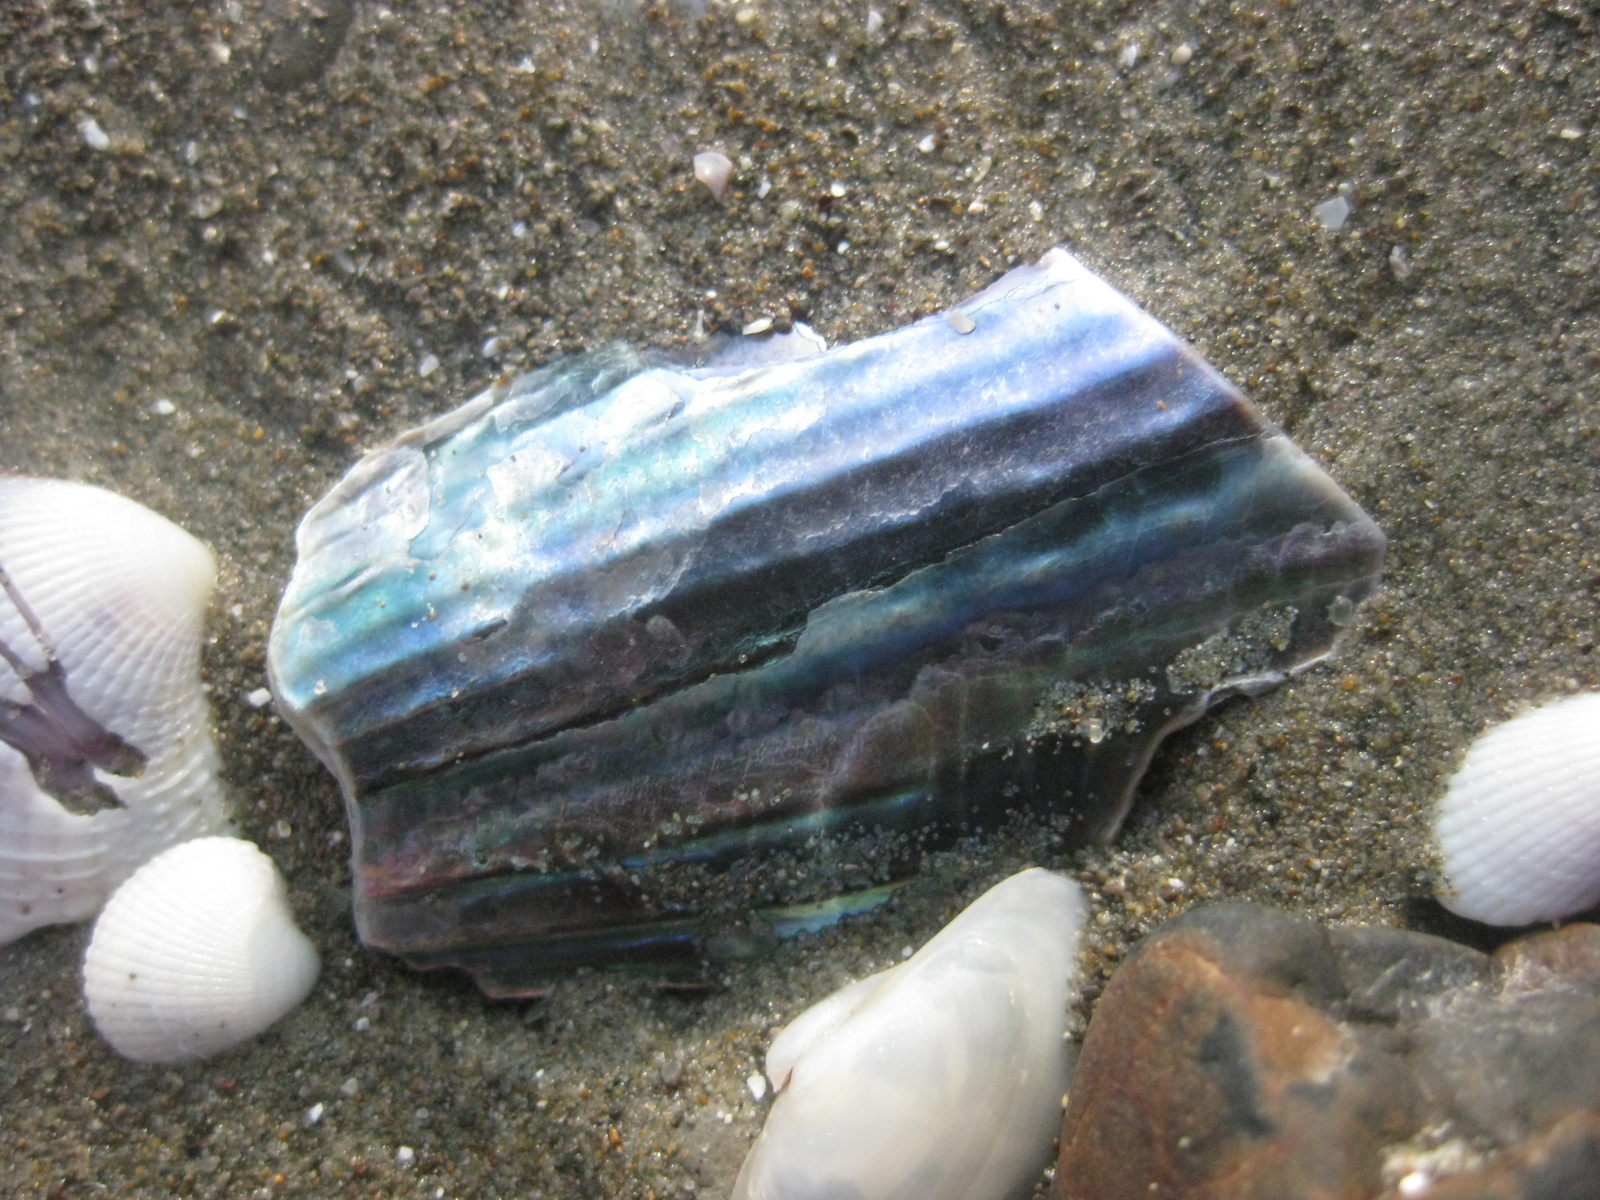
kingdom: Animalia
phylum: Mollusca
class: Bivalvia
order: Ostreida
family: Pinnidae
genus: Atrina
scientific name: Atrina zelandica
